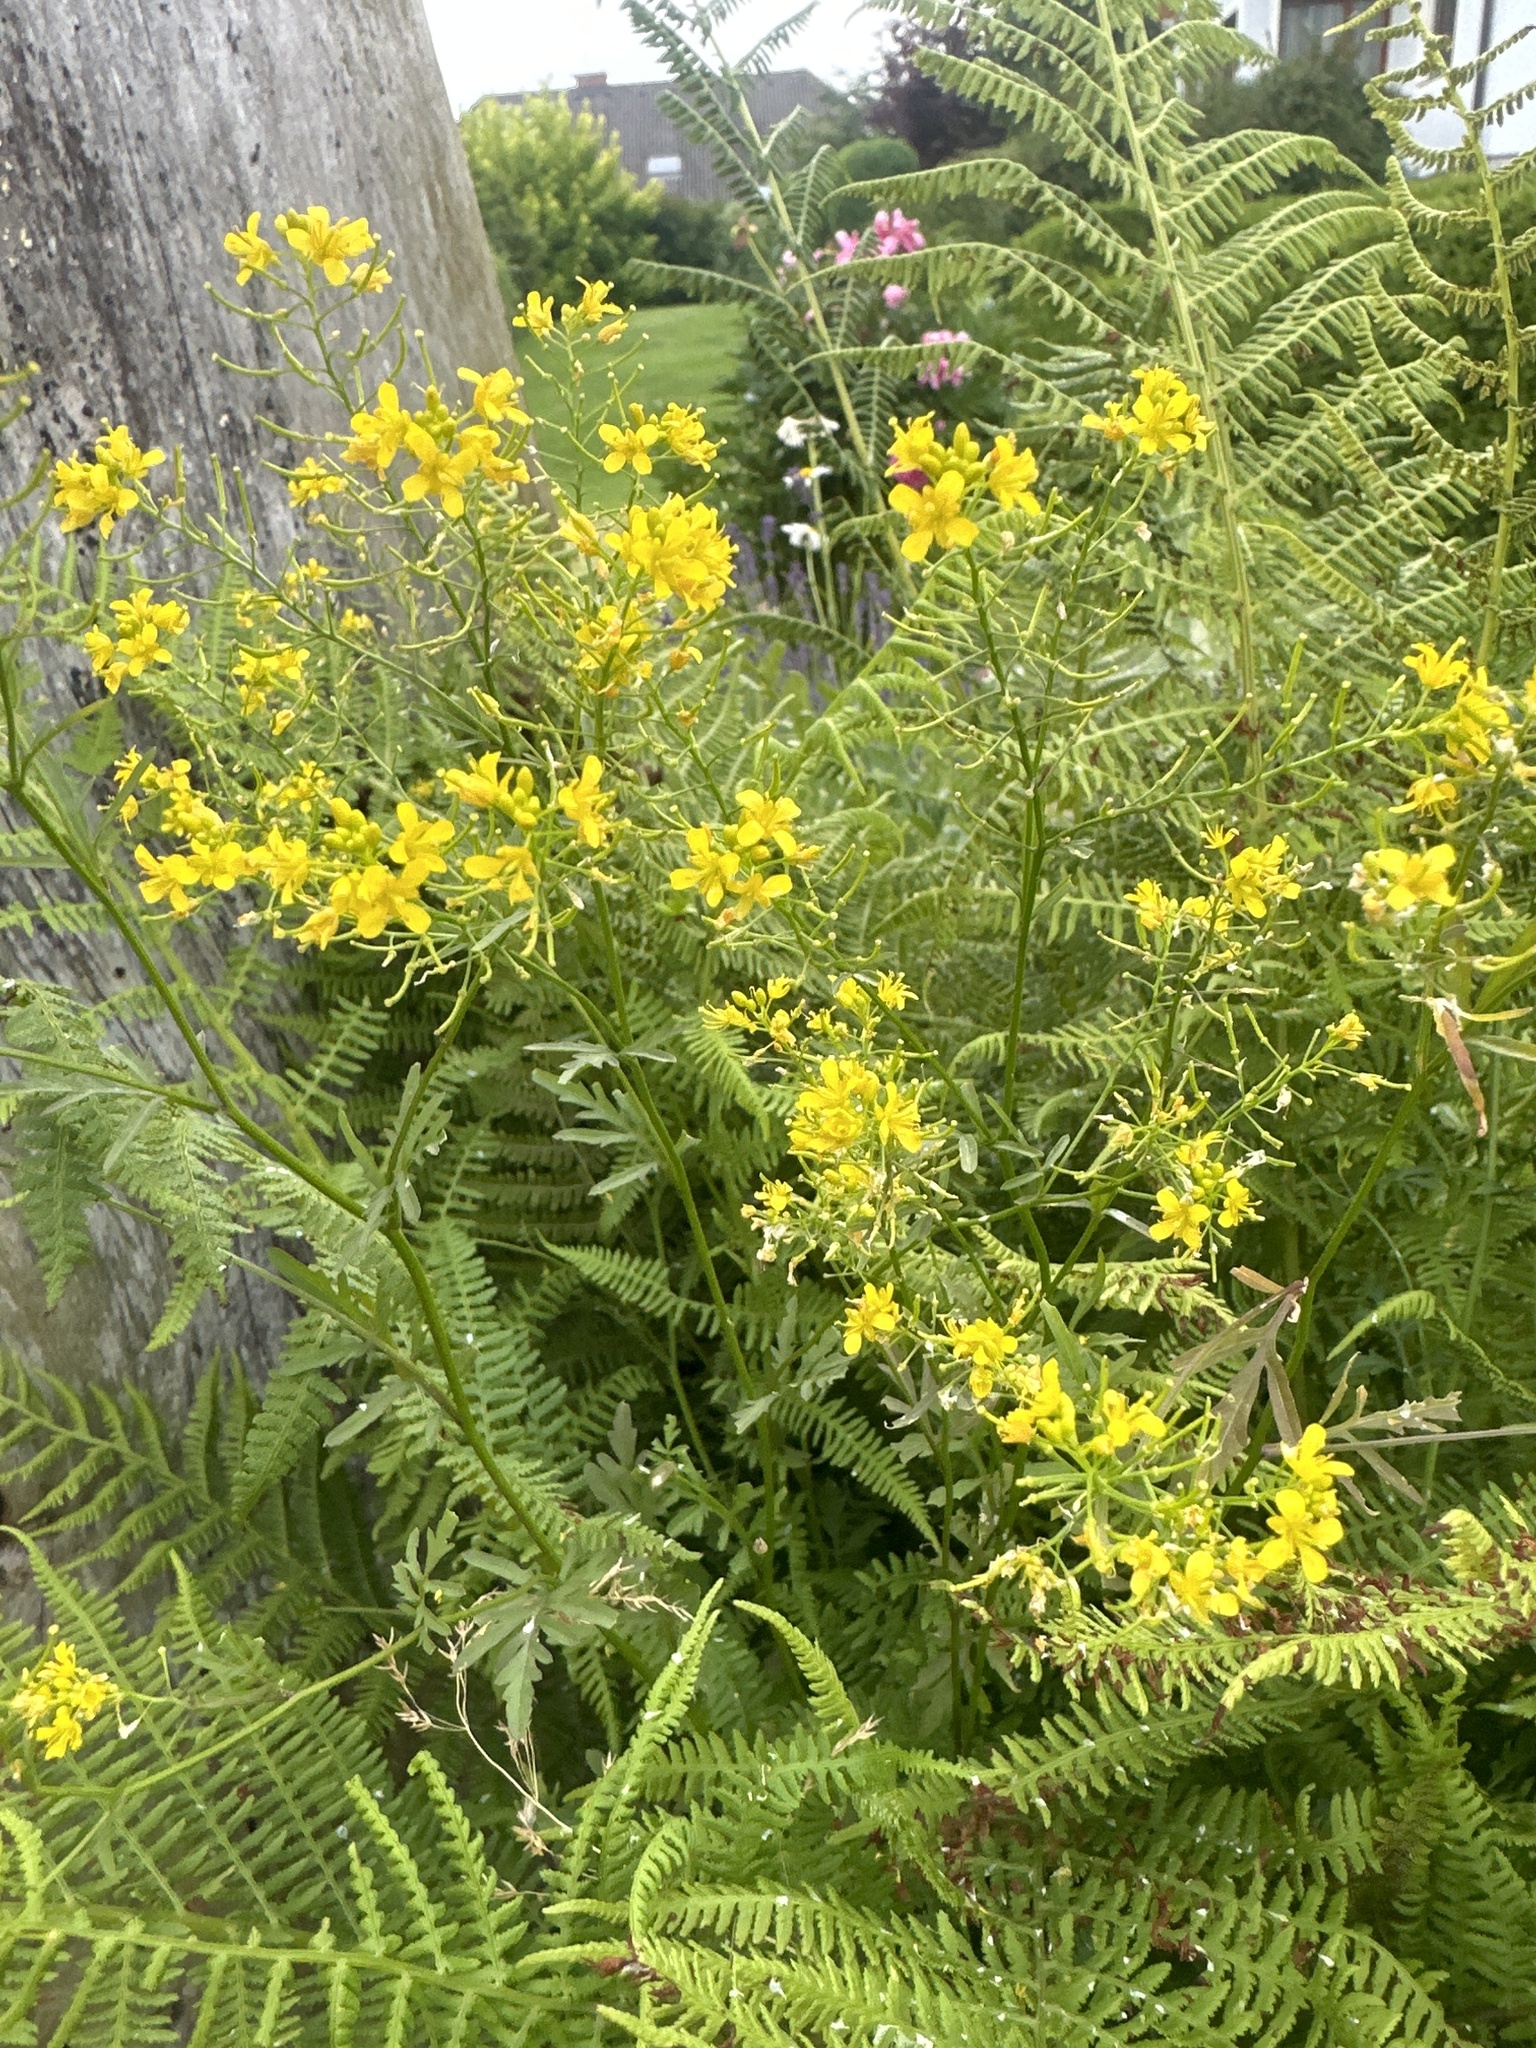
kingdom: Plantae
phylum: Tracheophyta
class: Magnoliopsida
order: Brassicales
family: Brassicaceae
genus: Rorippa
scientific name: Rorippa sylvestris
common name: Creeping yellowcress
